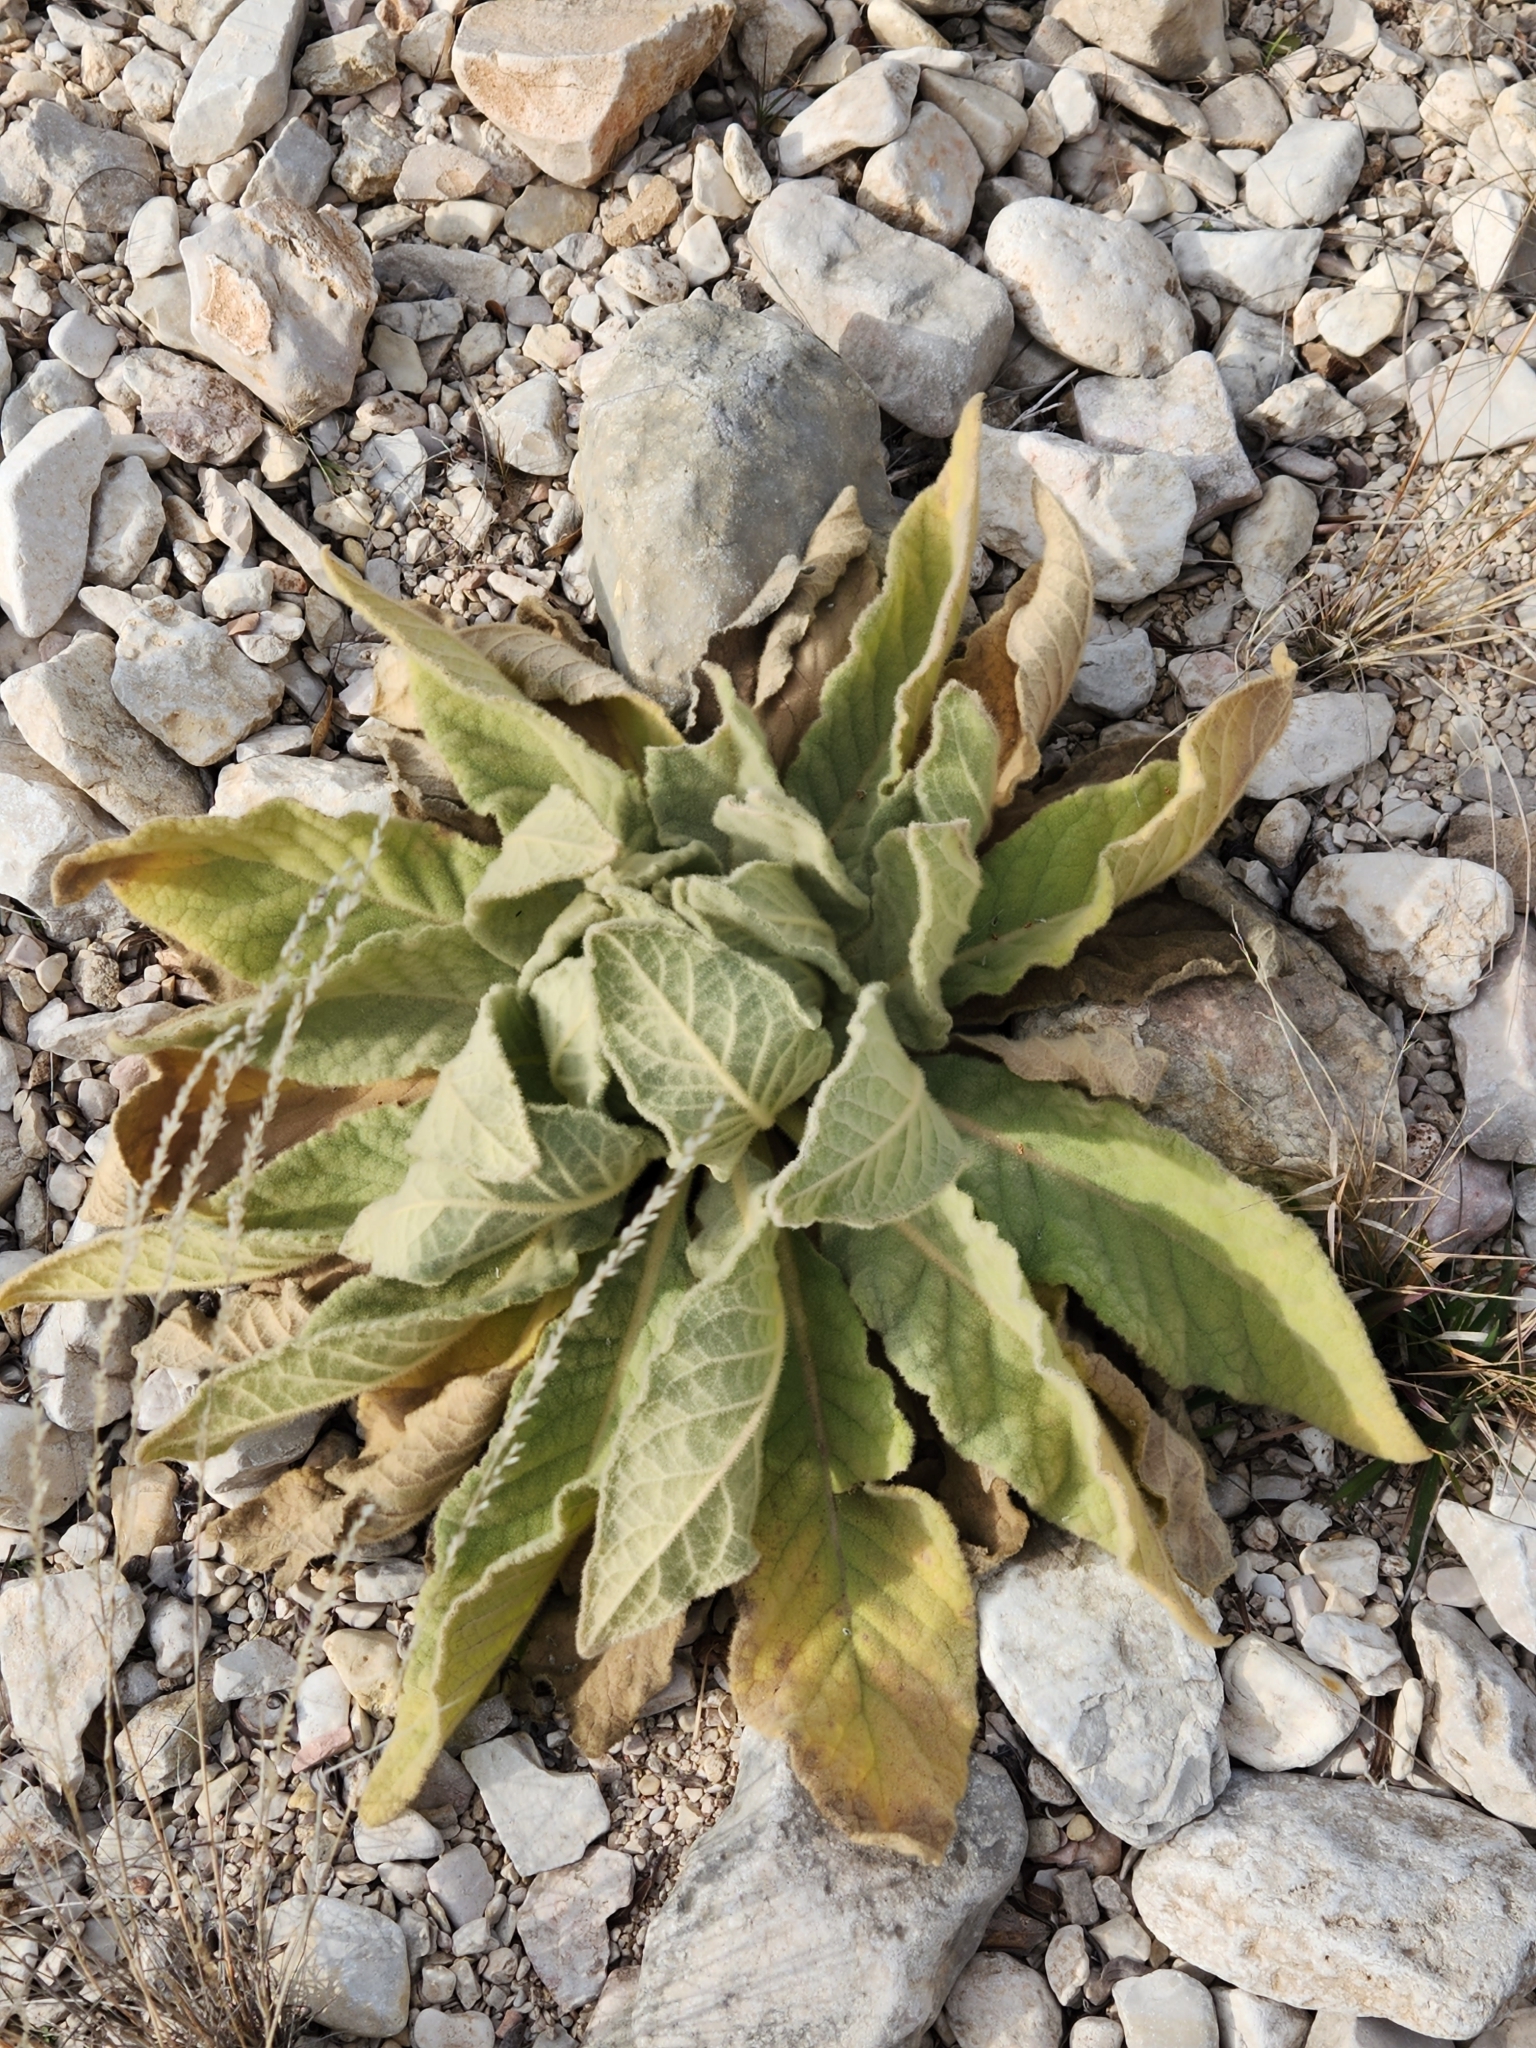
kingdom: Plantae
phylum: Tracheophyta
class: Magnoliopsida
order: Lamiales
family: Scrophulariaceae
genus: Verbascum
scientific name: Verbascum thapsus
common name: Common mullein
